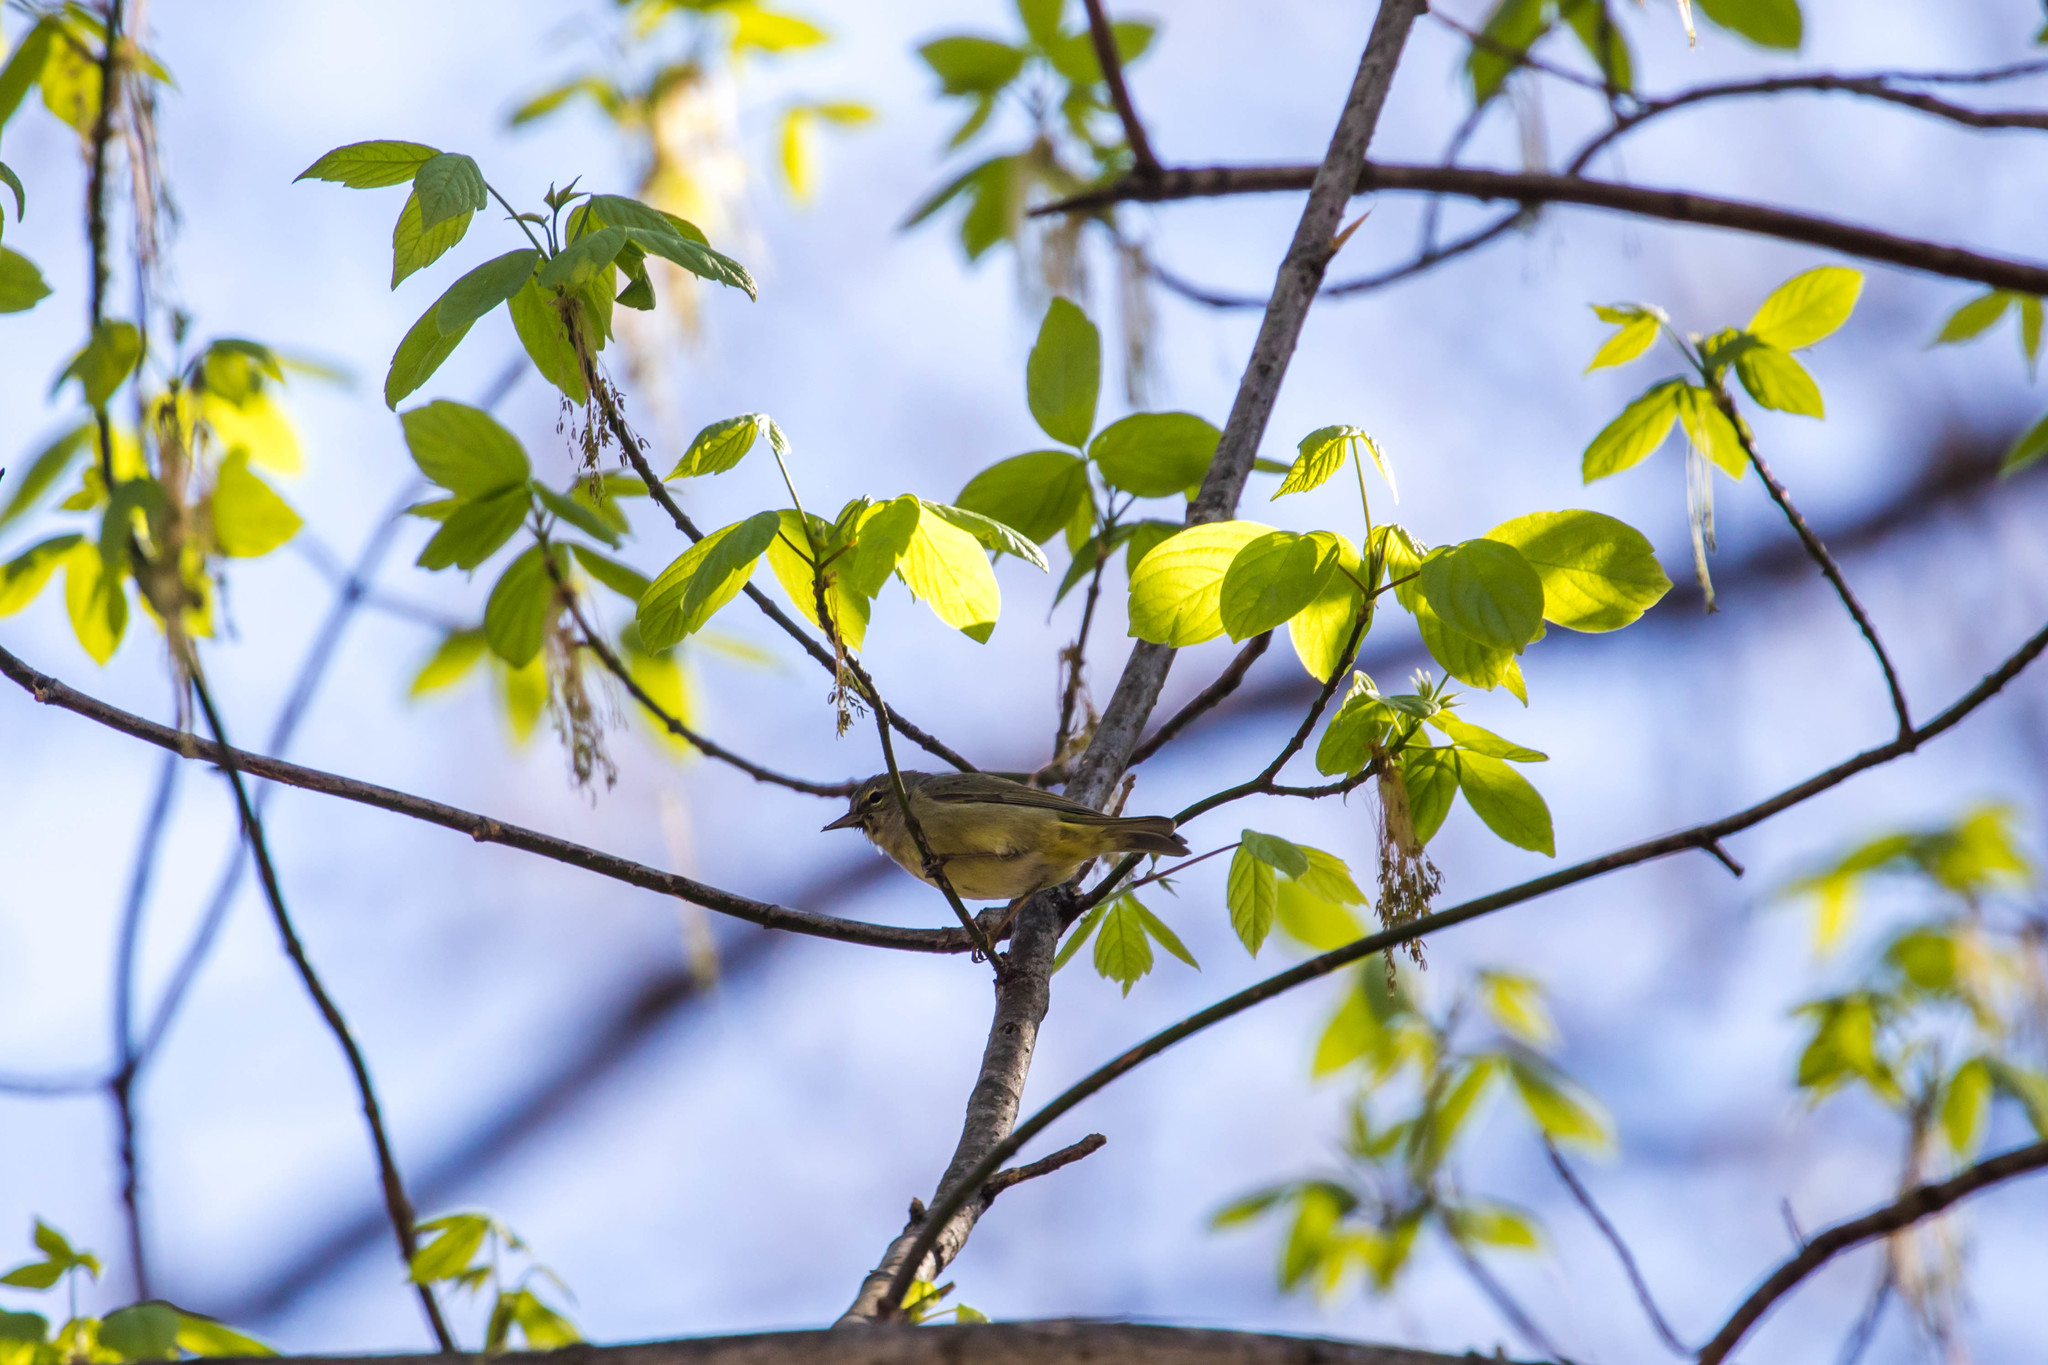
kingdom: Animalia
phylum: Chordata
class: Aves
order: Passeriformes
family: Parulidae
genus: Leiothlypis
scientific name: Leiothlypis celata
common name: Orange-crowned warbler
